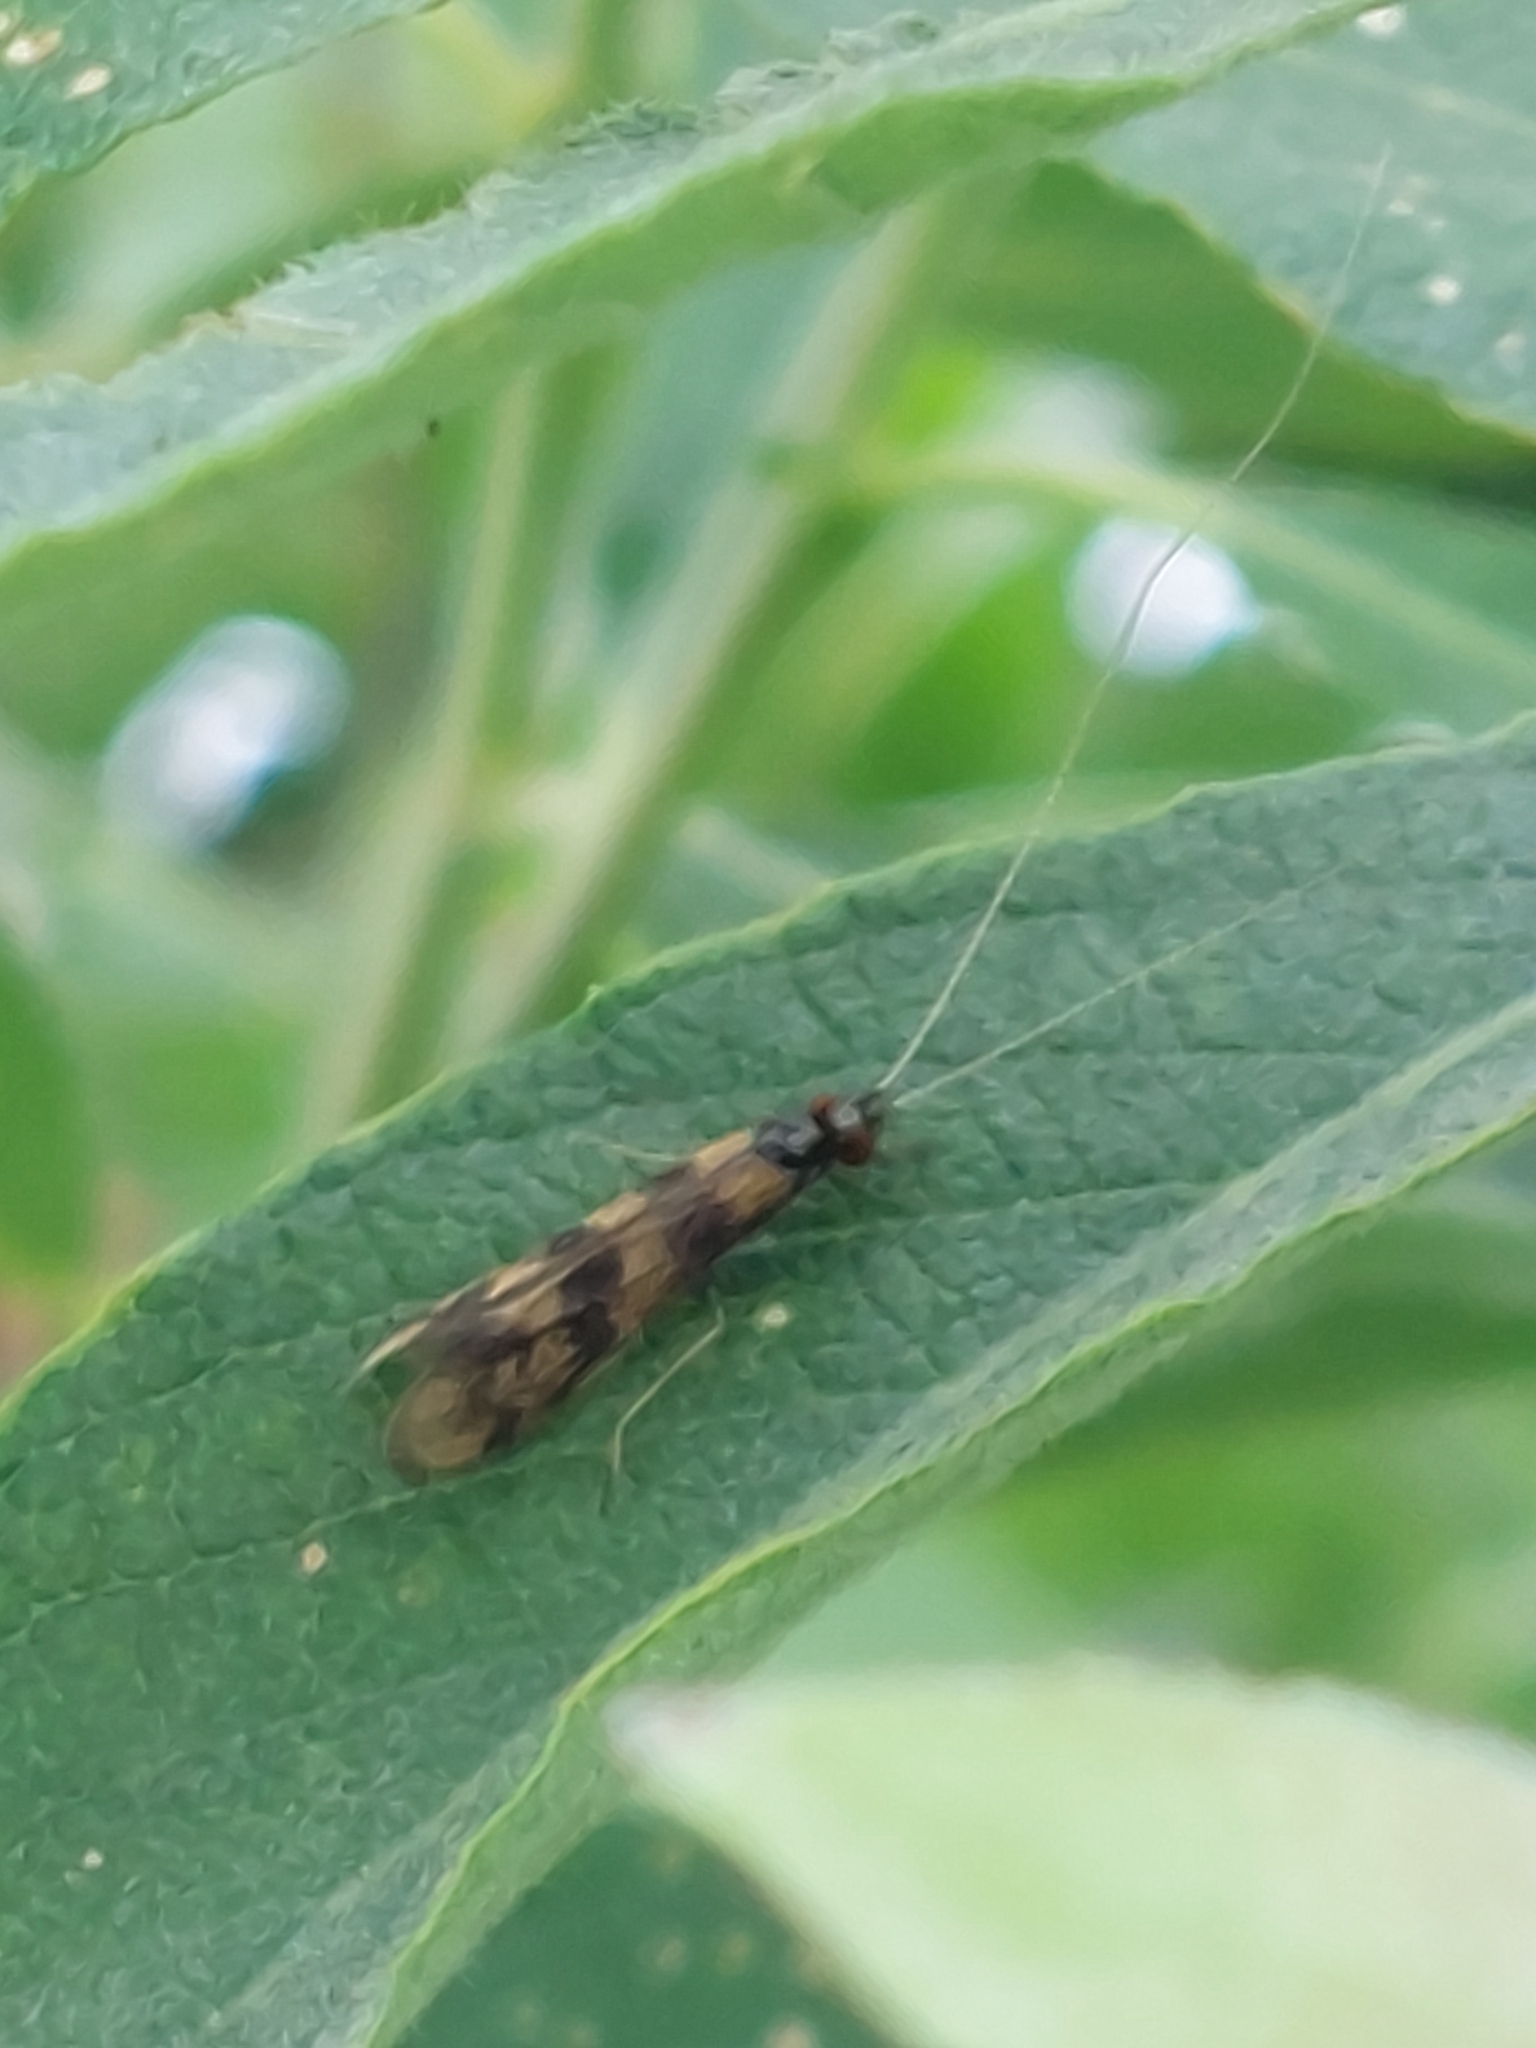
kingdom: Animalia
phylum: Arthropoda
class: Insecta
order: Trichoptera
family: Leptoceridae
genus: Mystacides
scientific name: Mystacides longicornis
